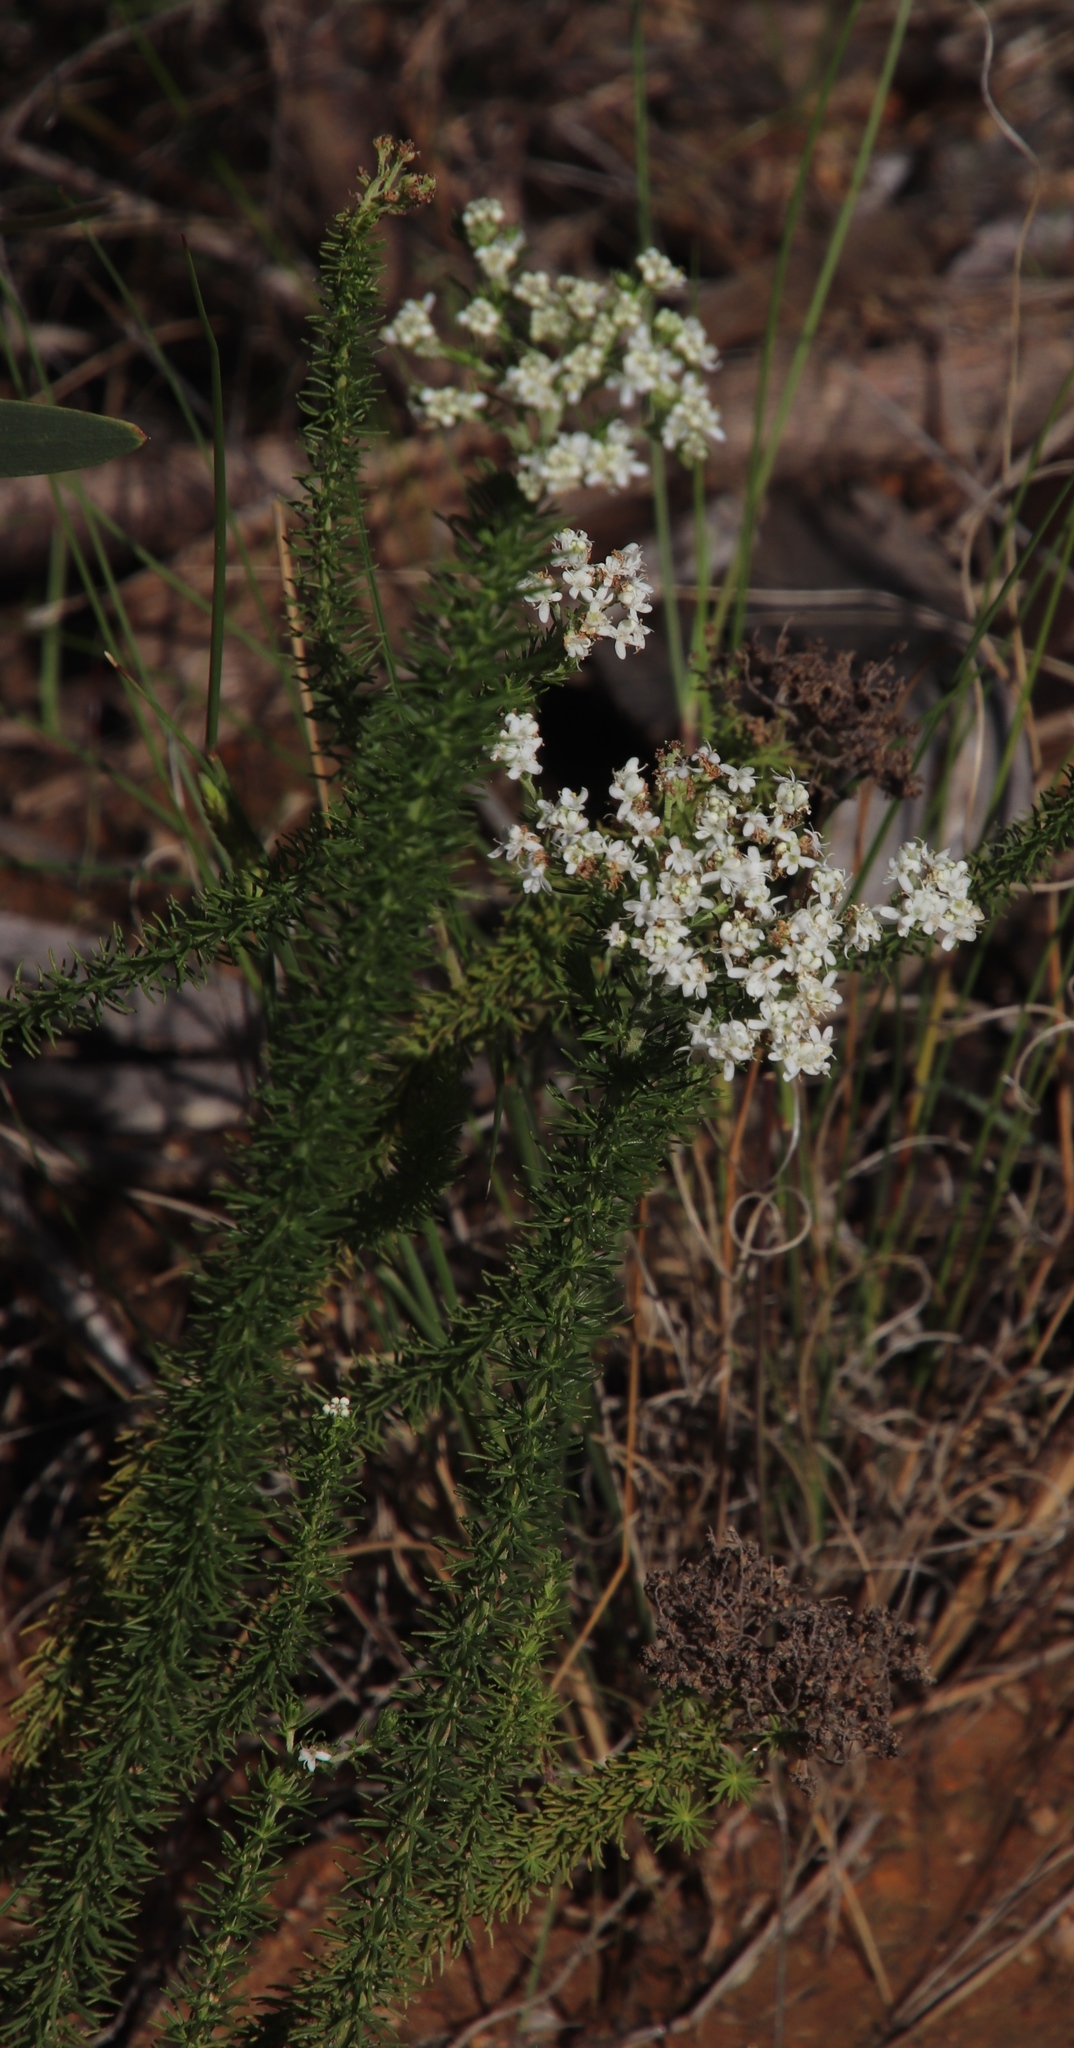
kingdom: Plantae
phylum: Tracheophyta
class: Magnoliopsida
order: Lamiales
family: Scrophulariaceae
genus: Selago
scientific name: Selago corymbosa
